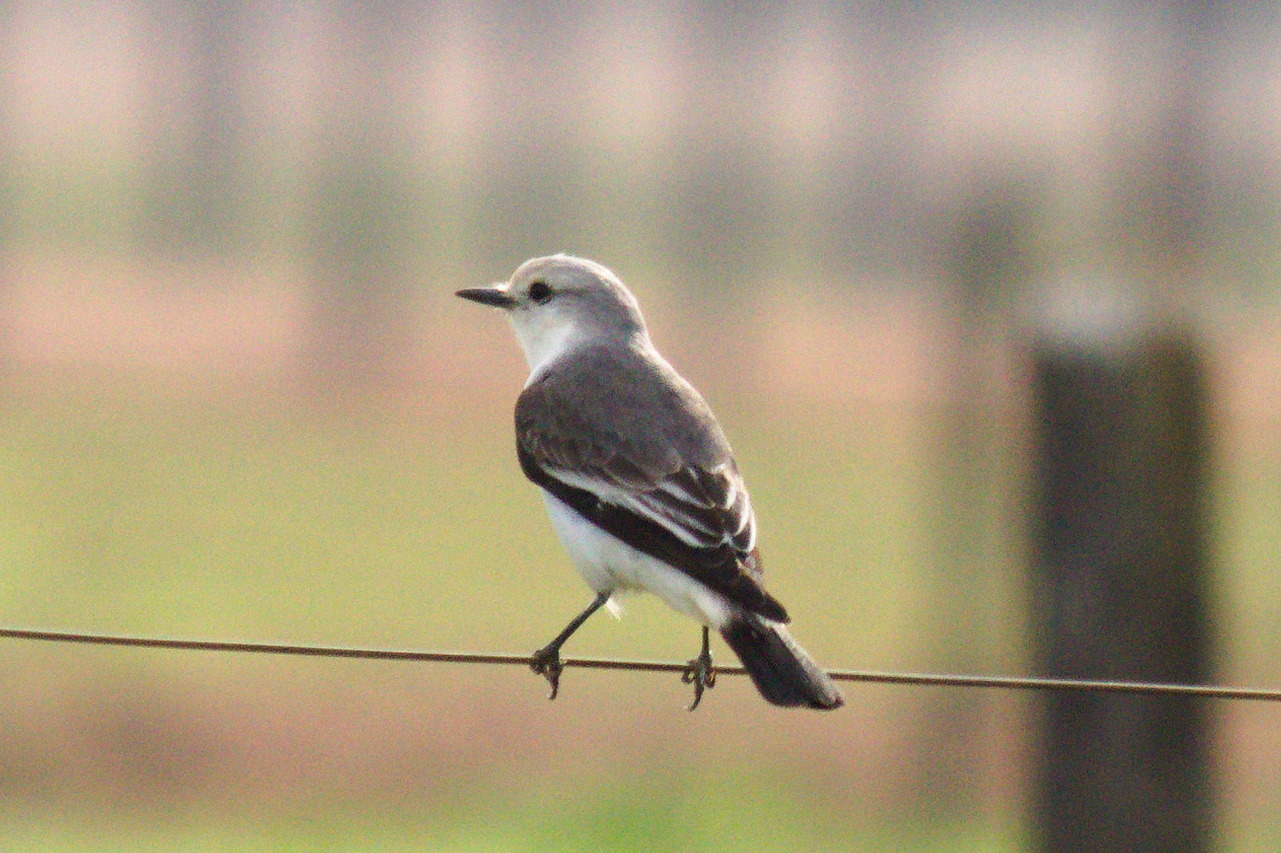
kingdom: Animalia
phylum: Chordata
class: Aves
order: Passeriformes
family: Tyrannidae
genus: Xolmis
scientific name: Xolmis velatus
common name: White-rumped monjita
